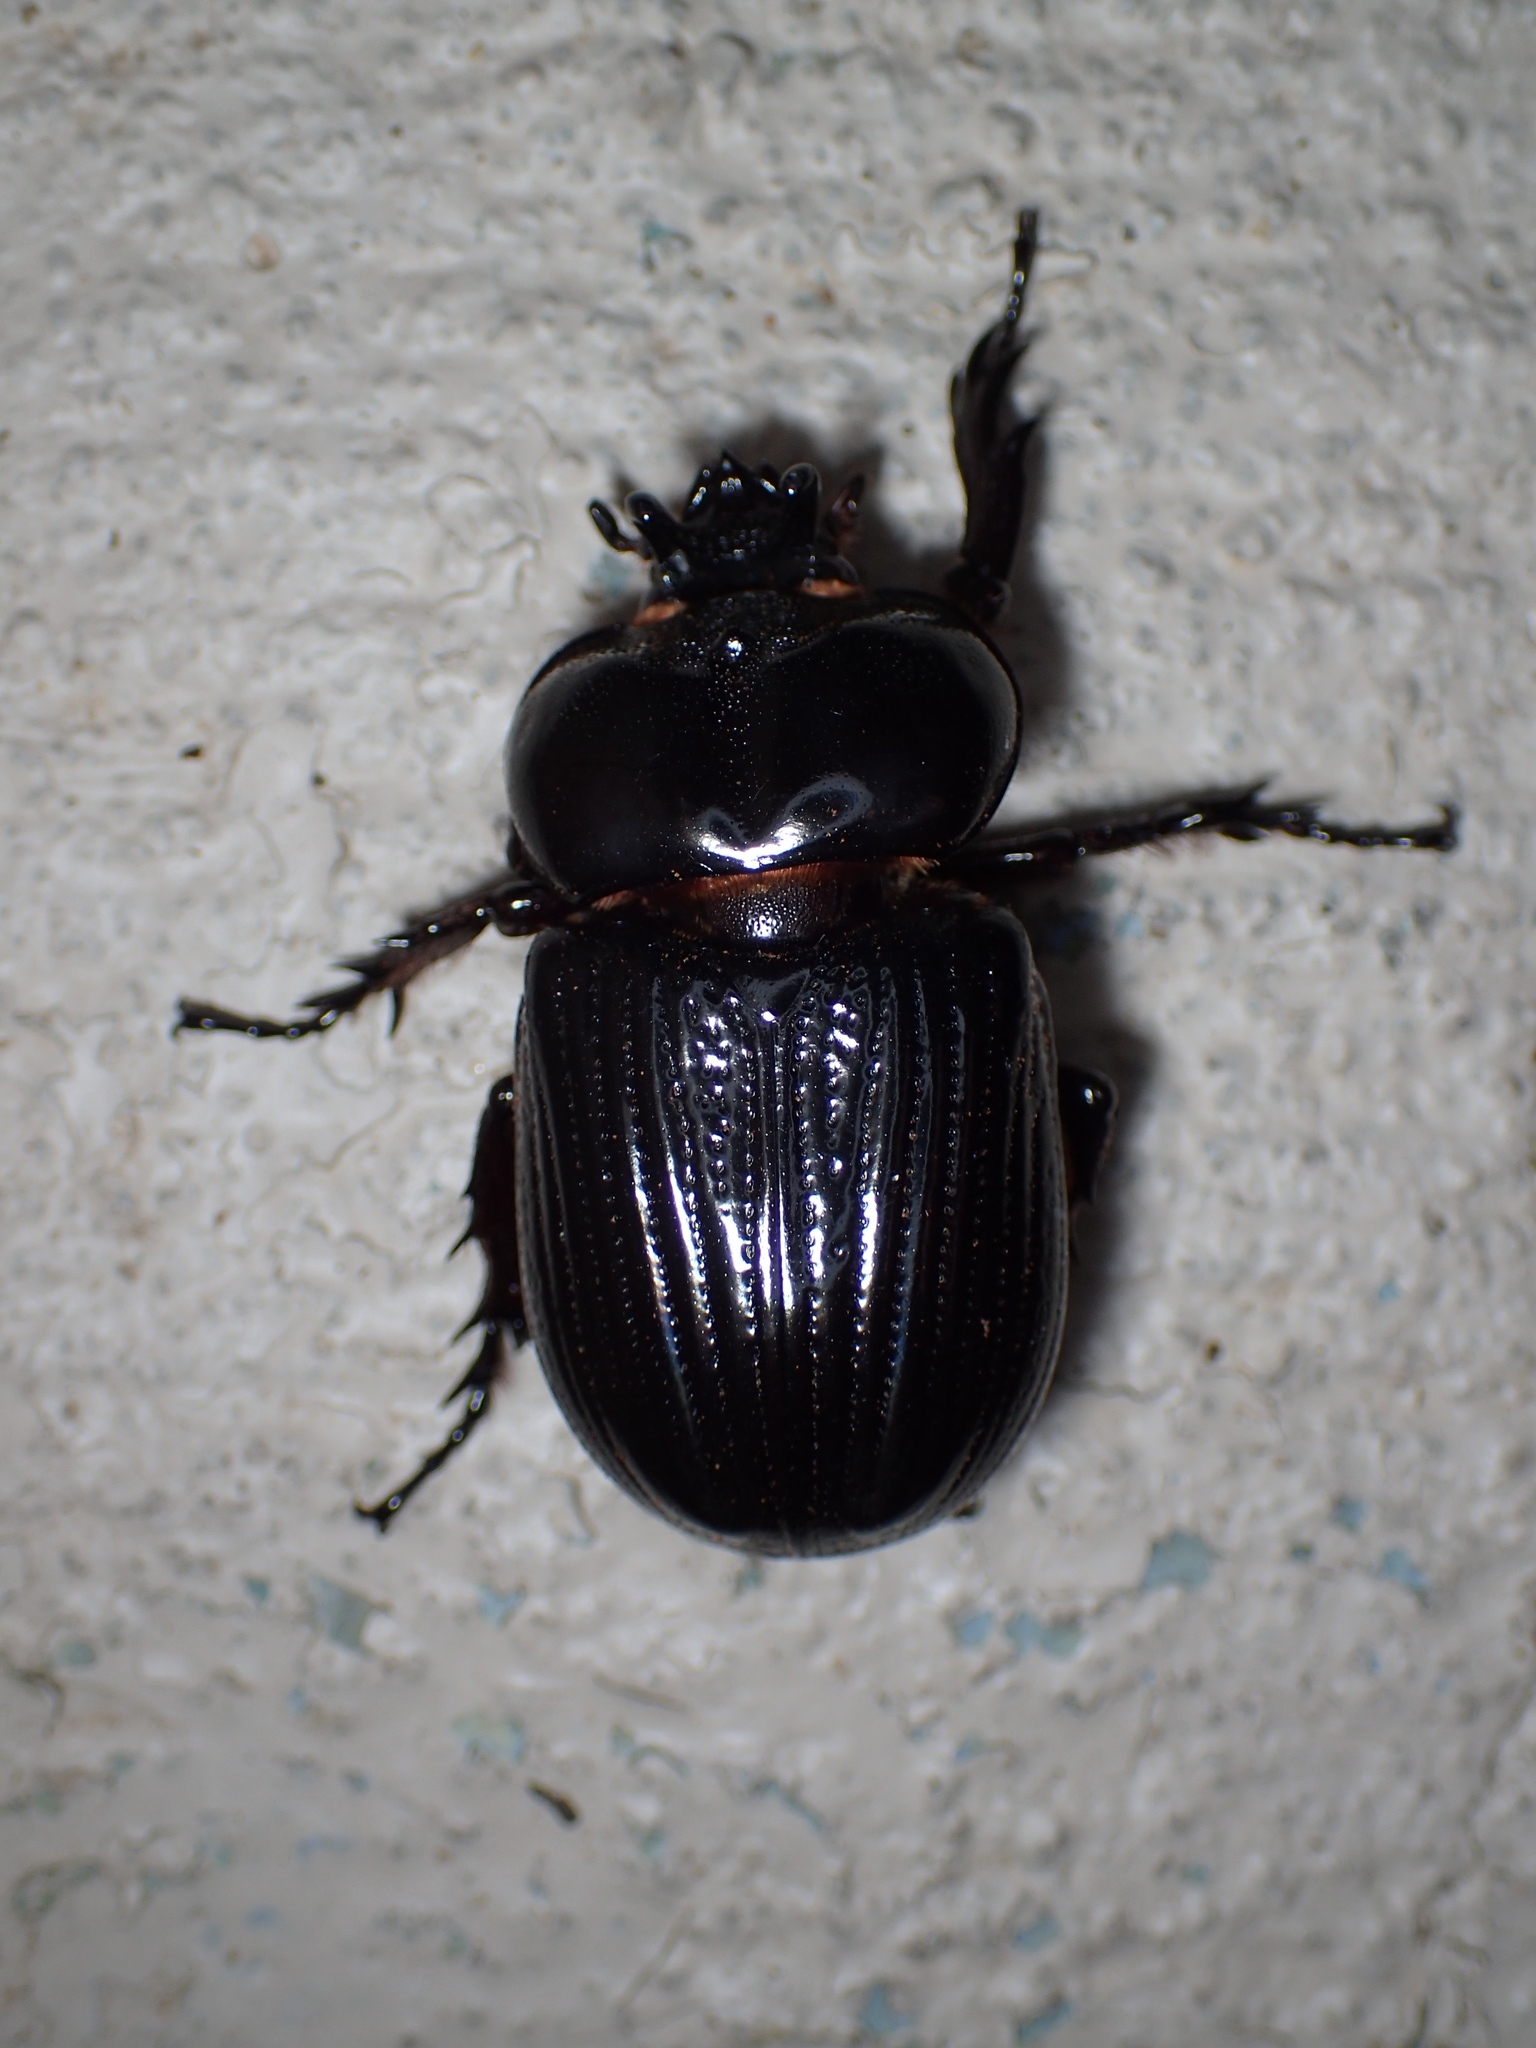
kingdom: Animalia
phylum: Arthropoda
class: Insecta
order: Coleoptera
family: Scarabaeidae
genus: Phileurus
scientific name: Phileurus truncatus
